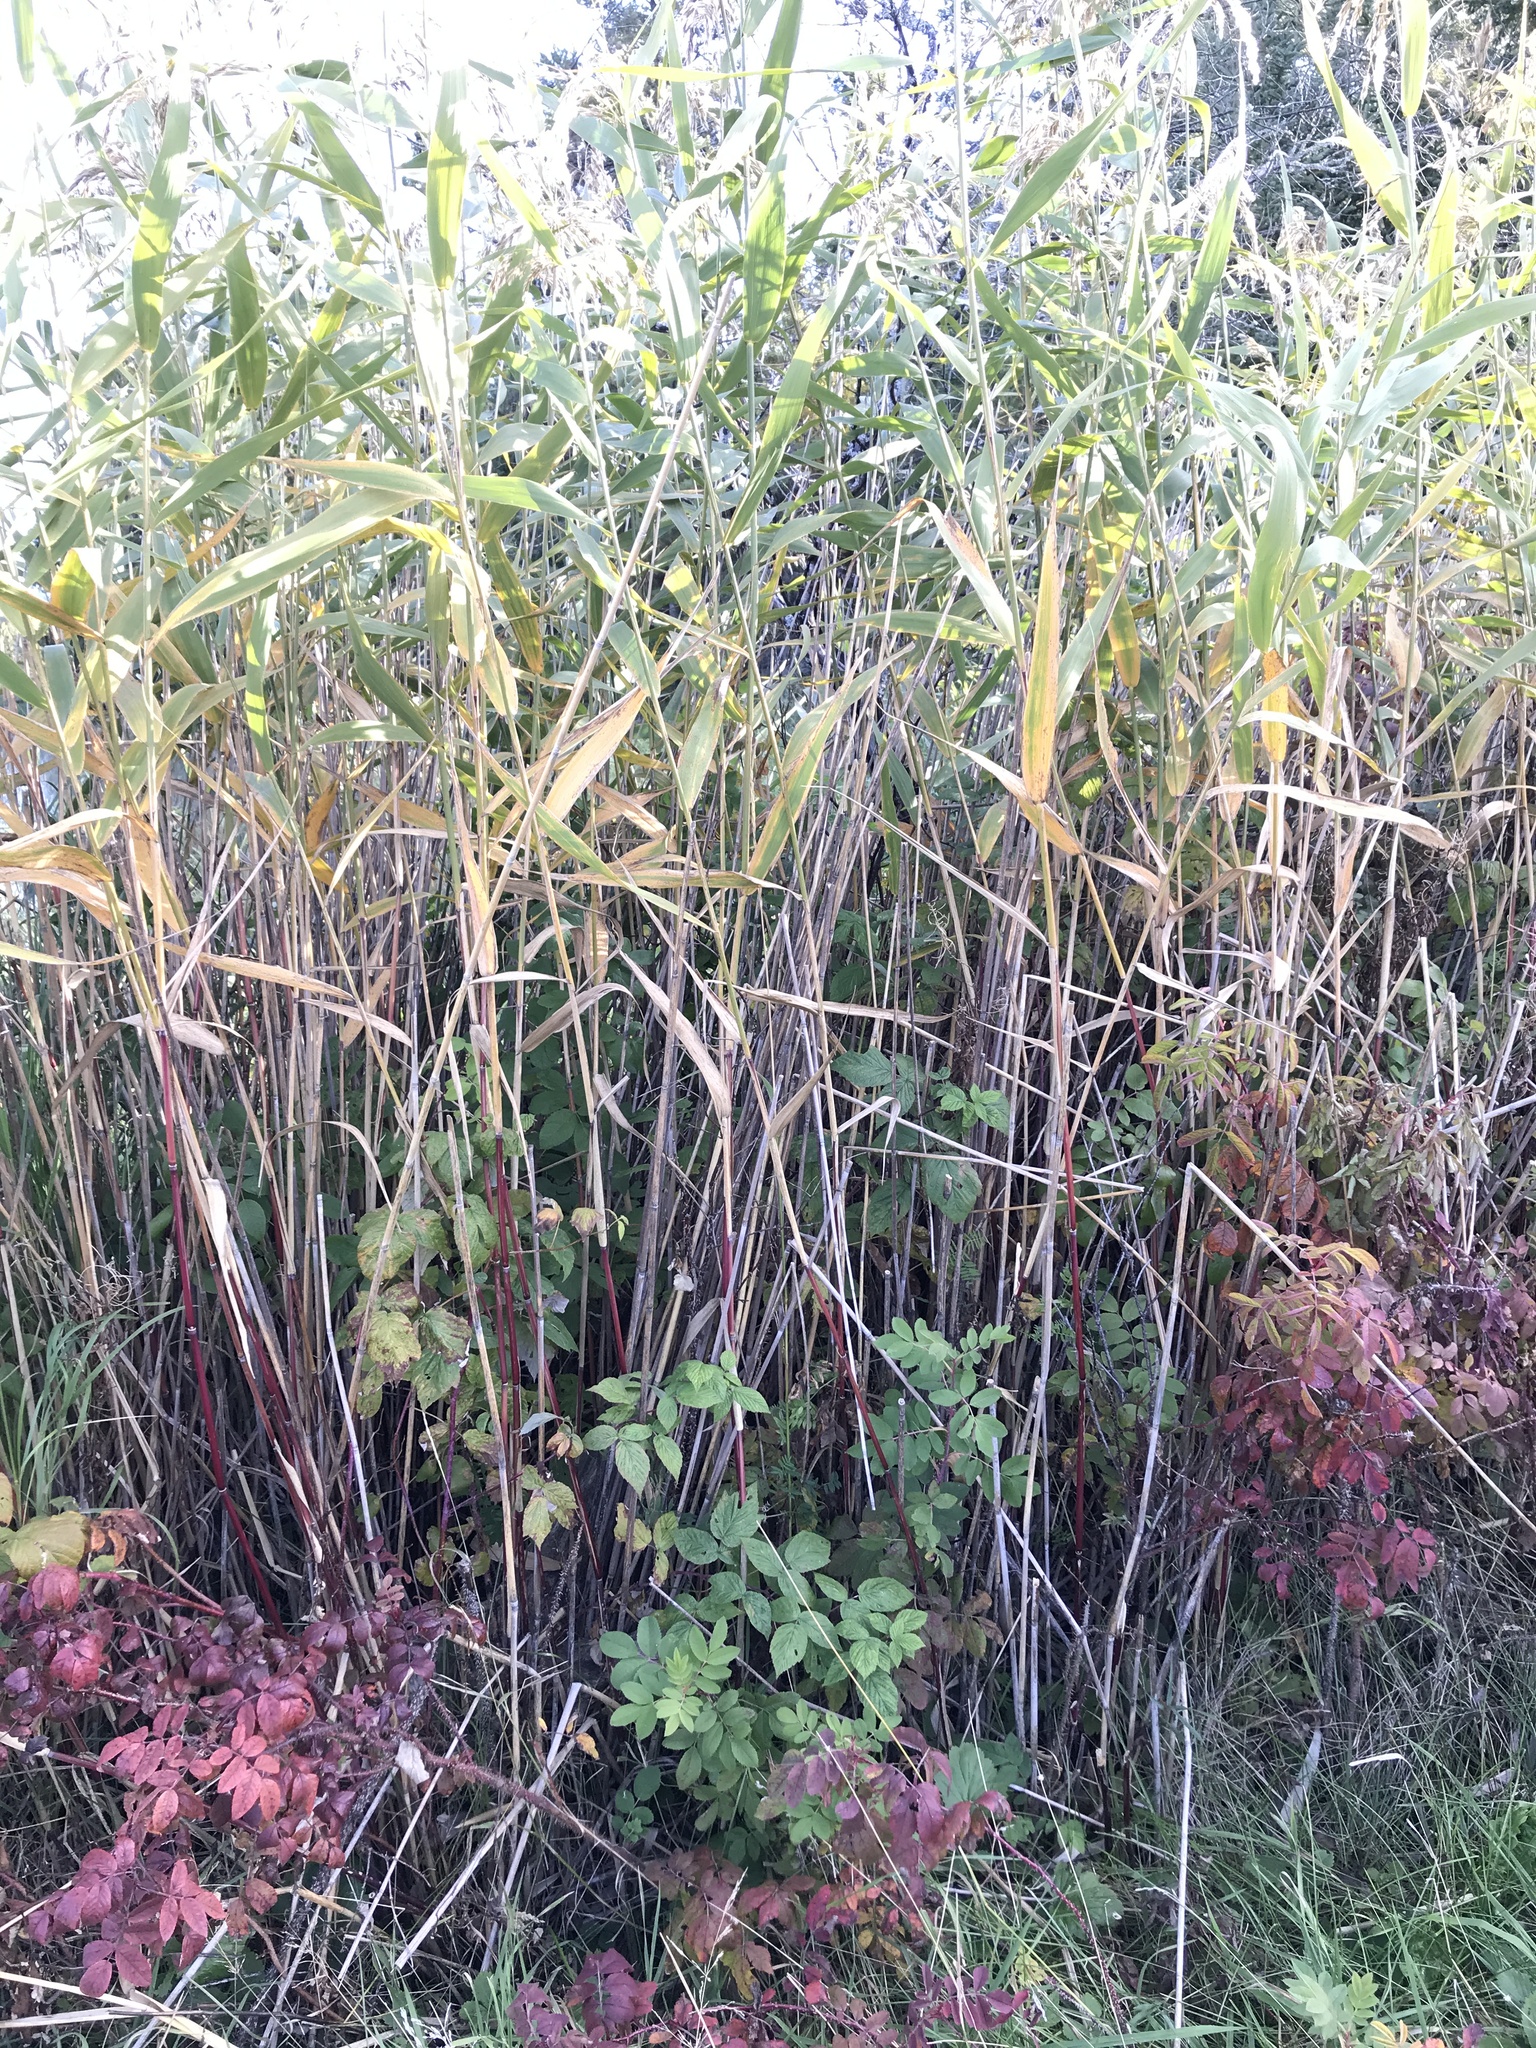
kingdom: Plantae
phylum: Tracheophyta
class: Liliopsida
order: Poales
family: Poaceae
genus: Phragmites
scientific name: Phragmites australis
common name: Common reed
